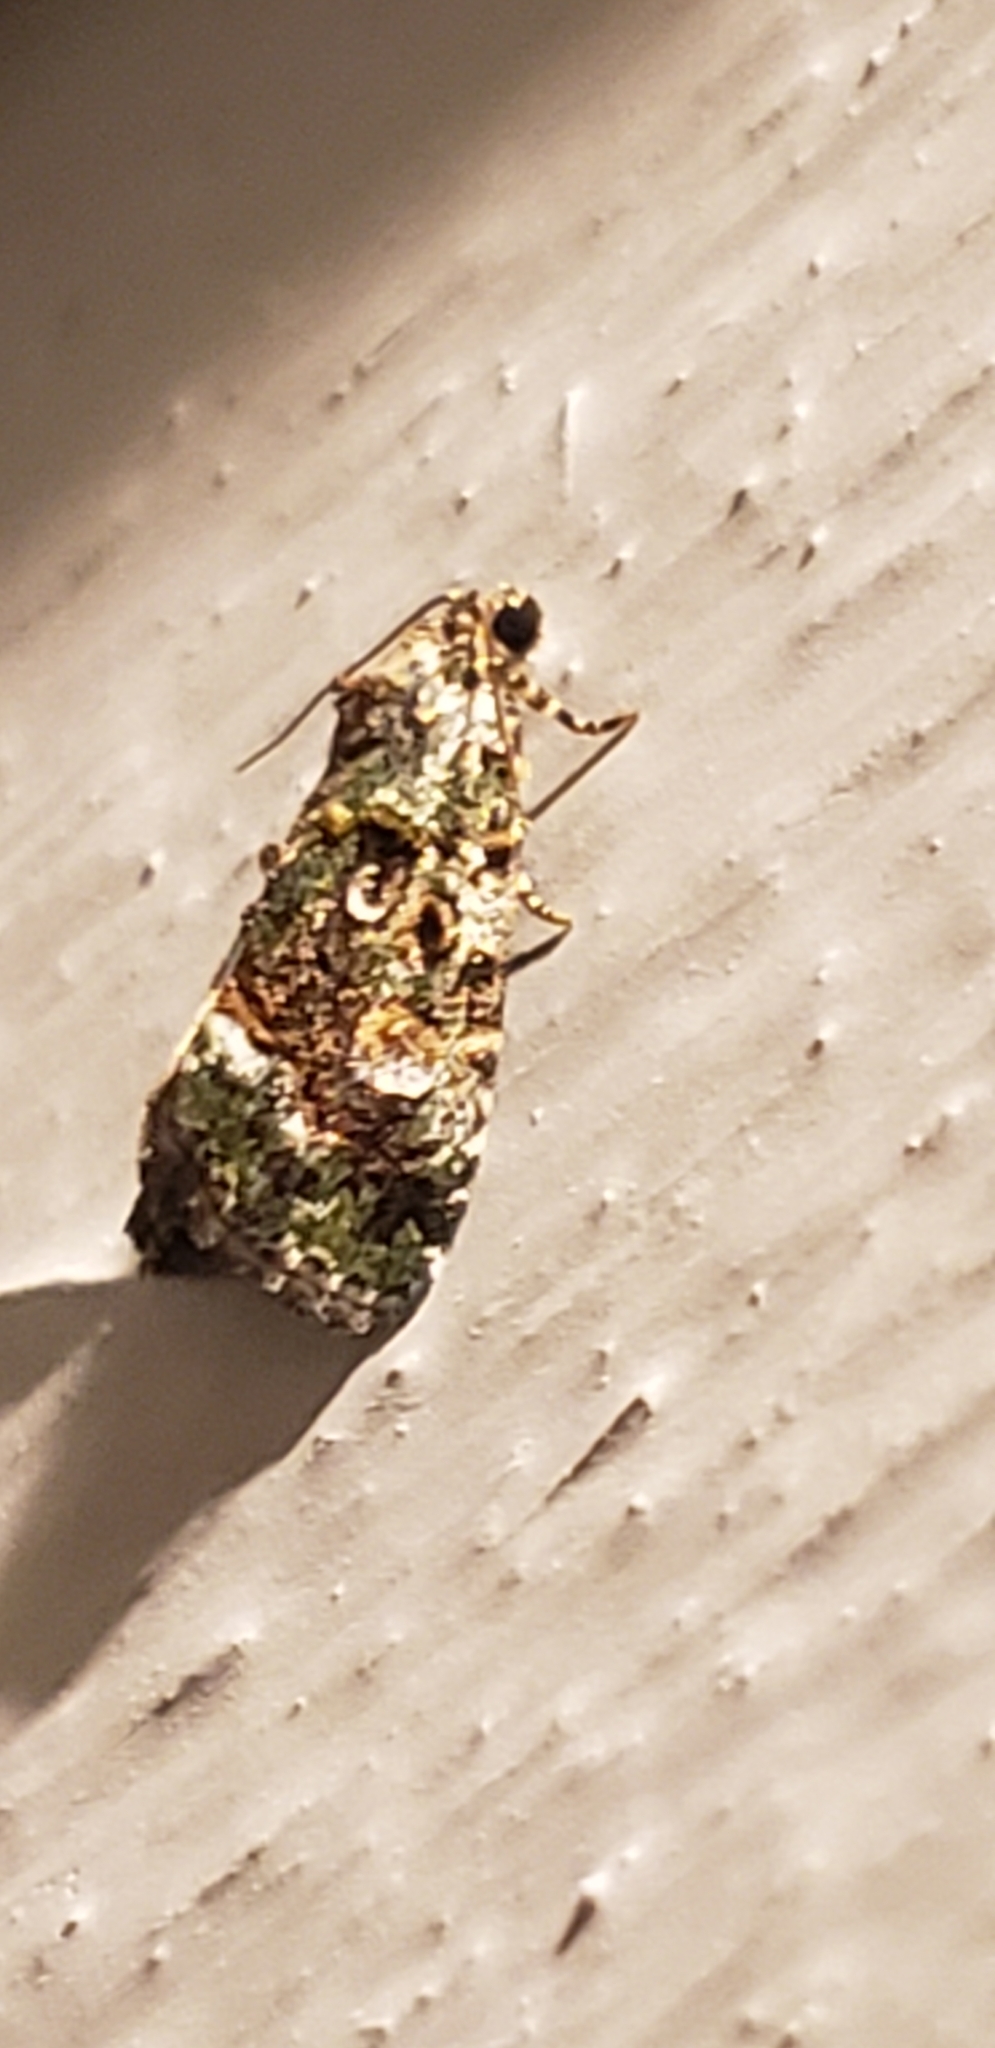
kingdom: Animalia
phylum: Arthropoda
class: Insecta
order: Lepidoptera
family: Noctuidae
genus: Lithacodia
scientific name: Lithacodia musta
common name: Small mossy glyph
